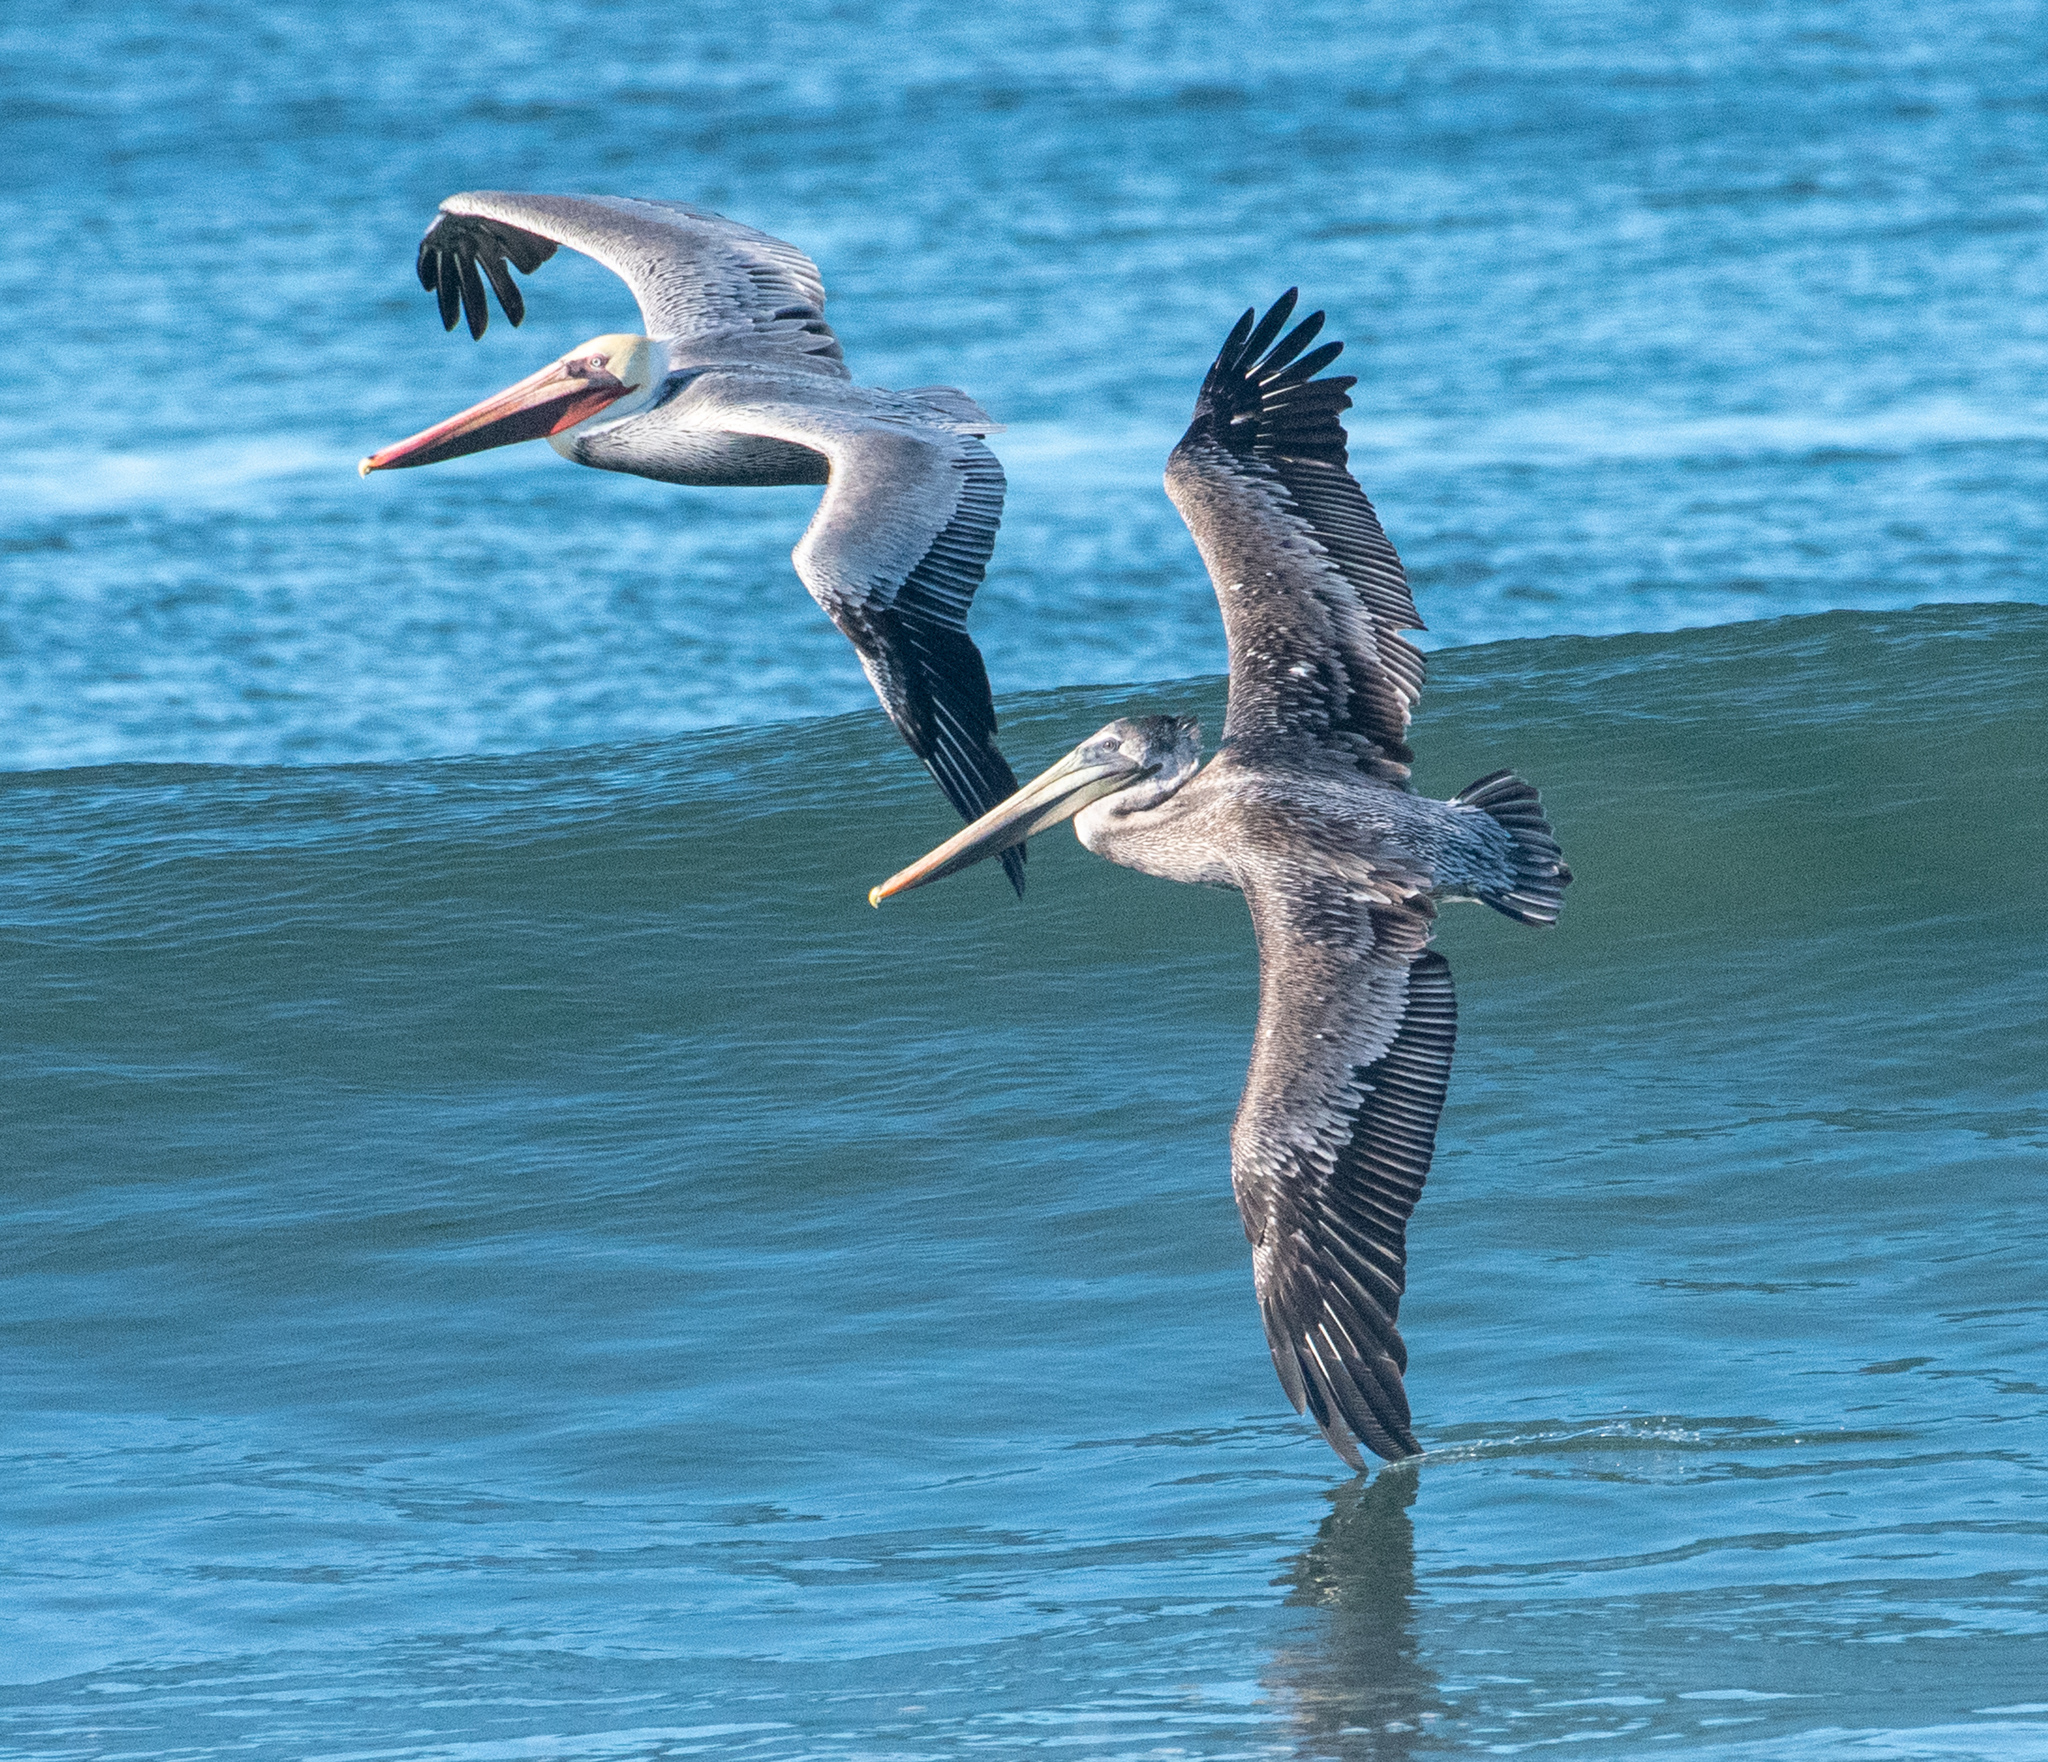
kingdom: Animalia
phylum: Chordata
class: Aves
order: Pelecaniformes
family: Pelecanidae
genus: Pelecanus
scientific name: Pelecanus occidentalis
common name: Brown pelican
